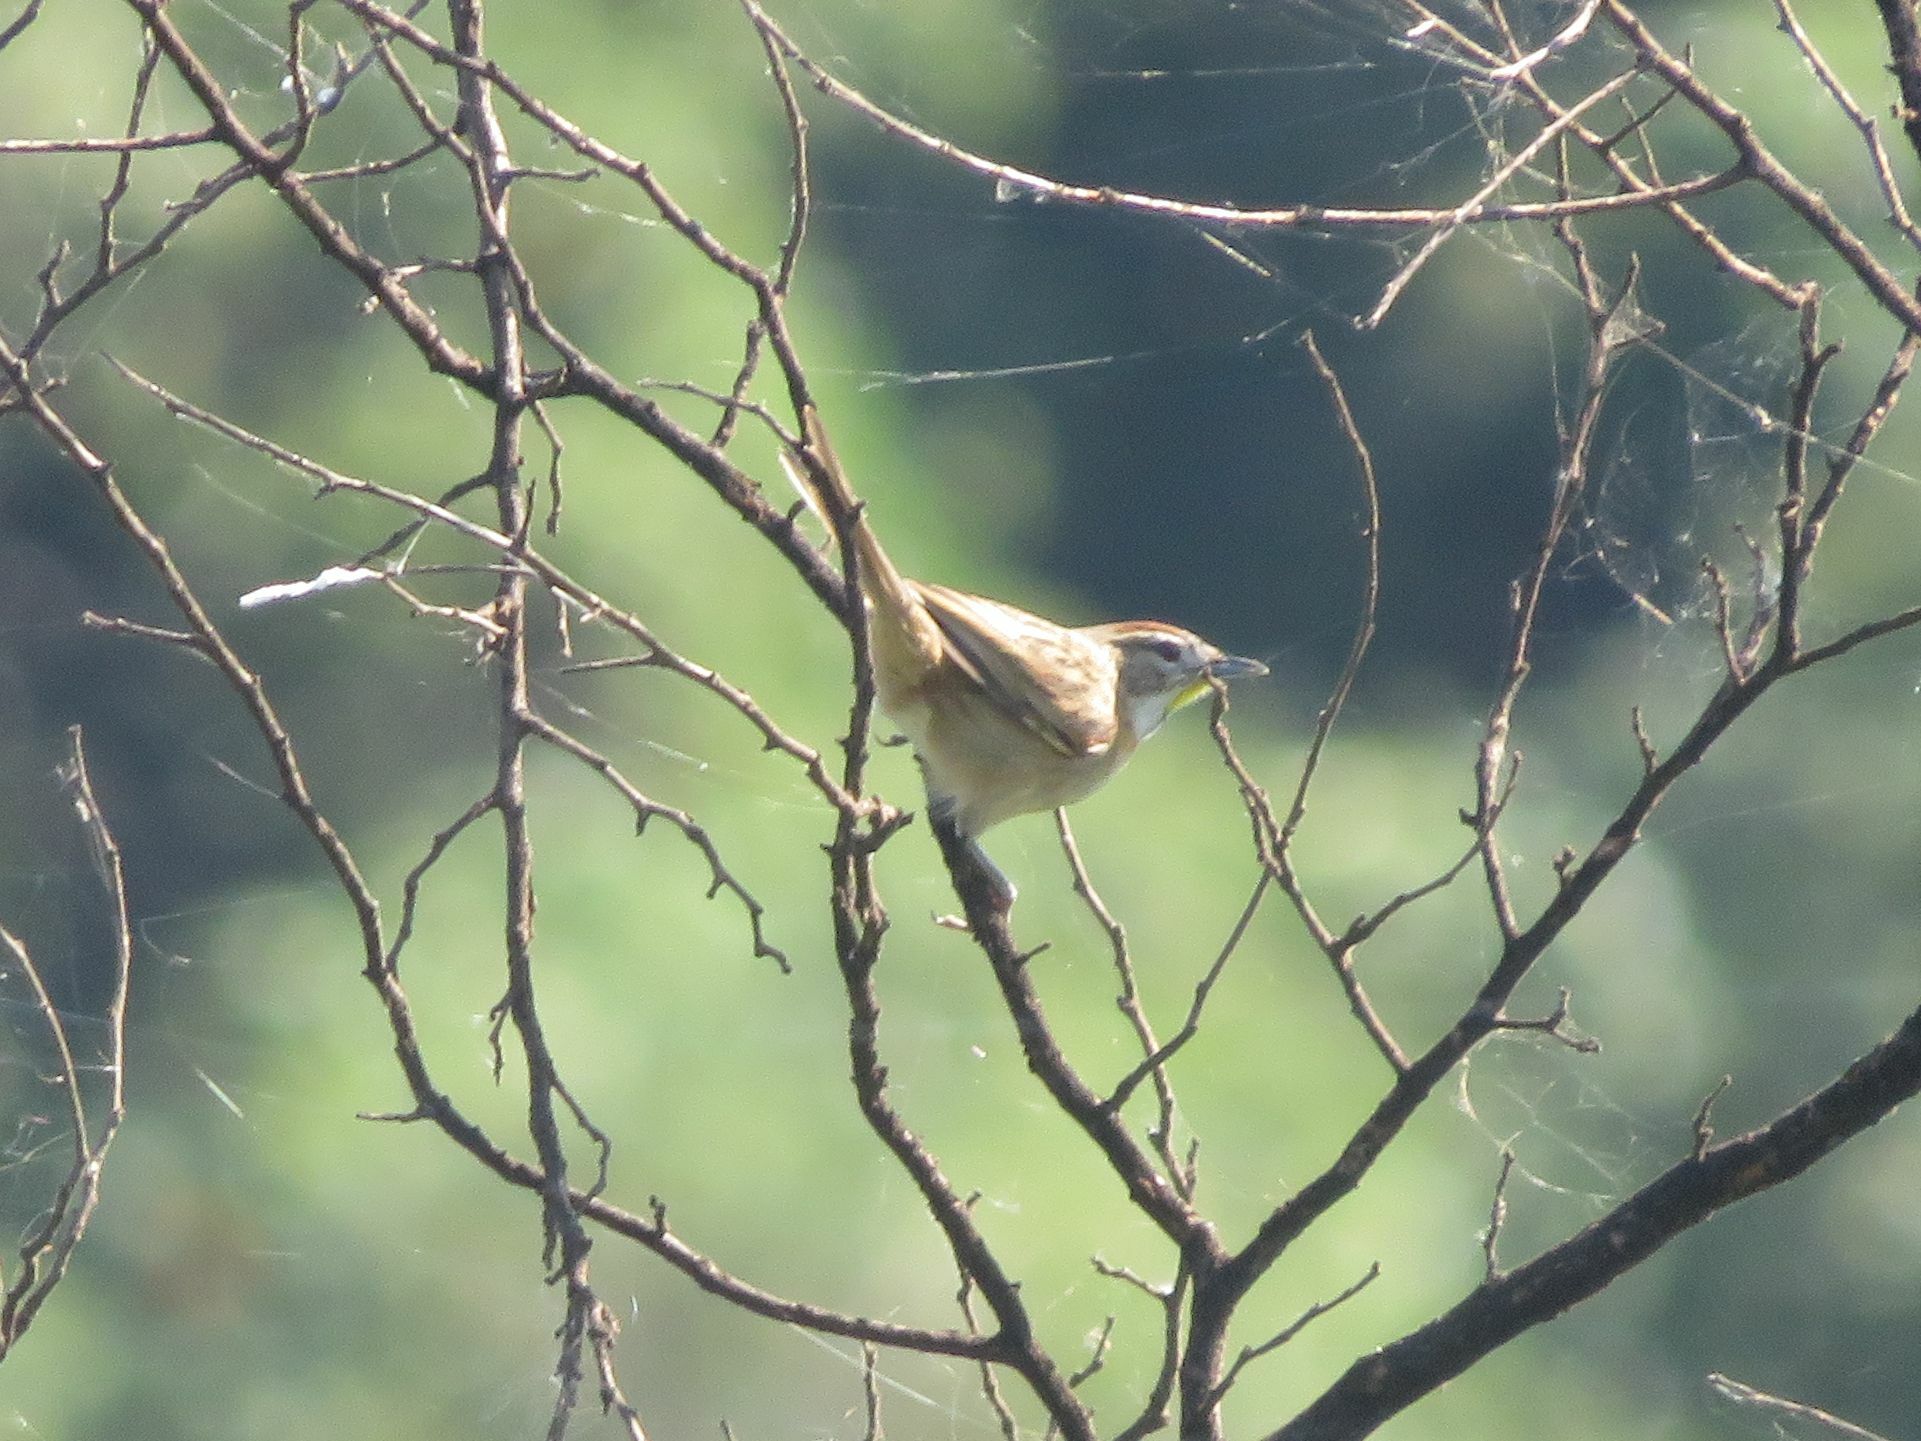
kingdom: Animalia
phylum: Chordata
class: Aves
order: Passeriformes
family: Furnariidae
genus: Schoeniophylax
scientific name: Schoeniophylax phryganophilus
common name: Chotoy spinetail
